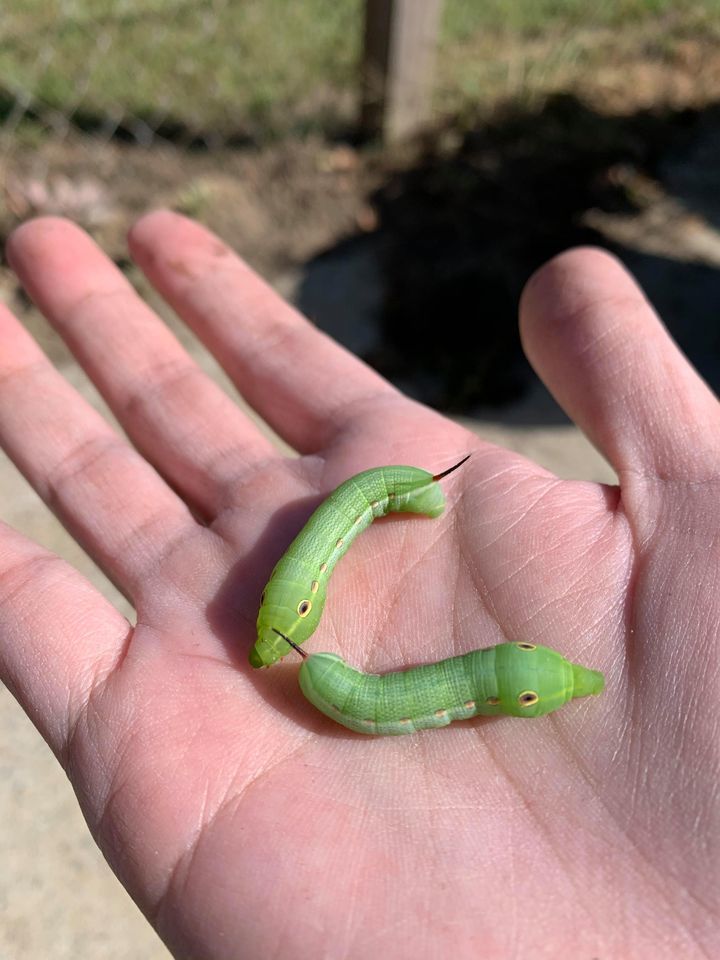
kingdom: Animalia
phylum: Arthropoda
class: Insecta
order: Lepidoptera
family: Sphingidae
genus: Xylophanes
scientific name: Xylophanes tersa
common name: Tersa sphinx
